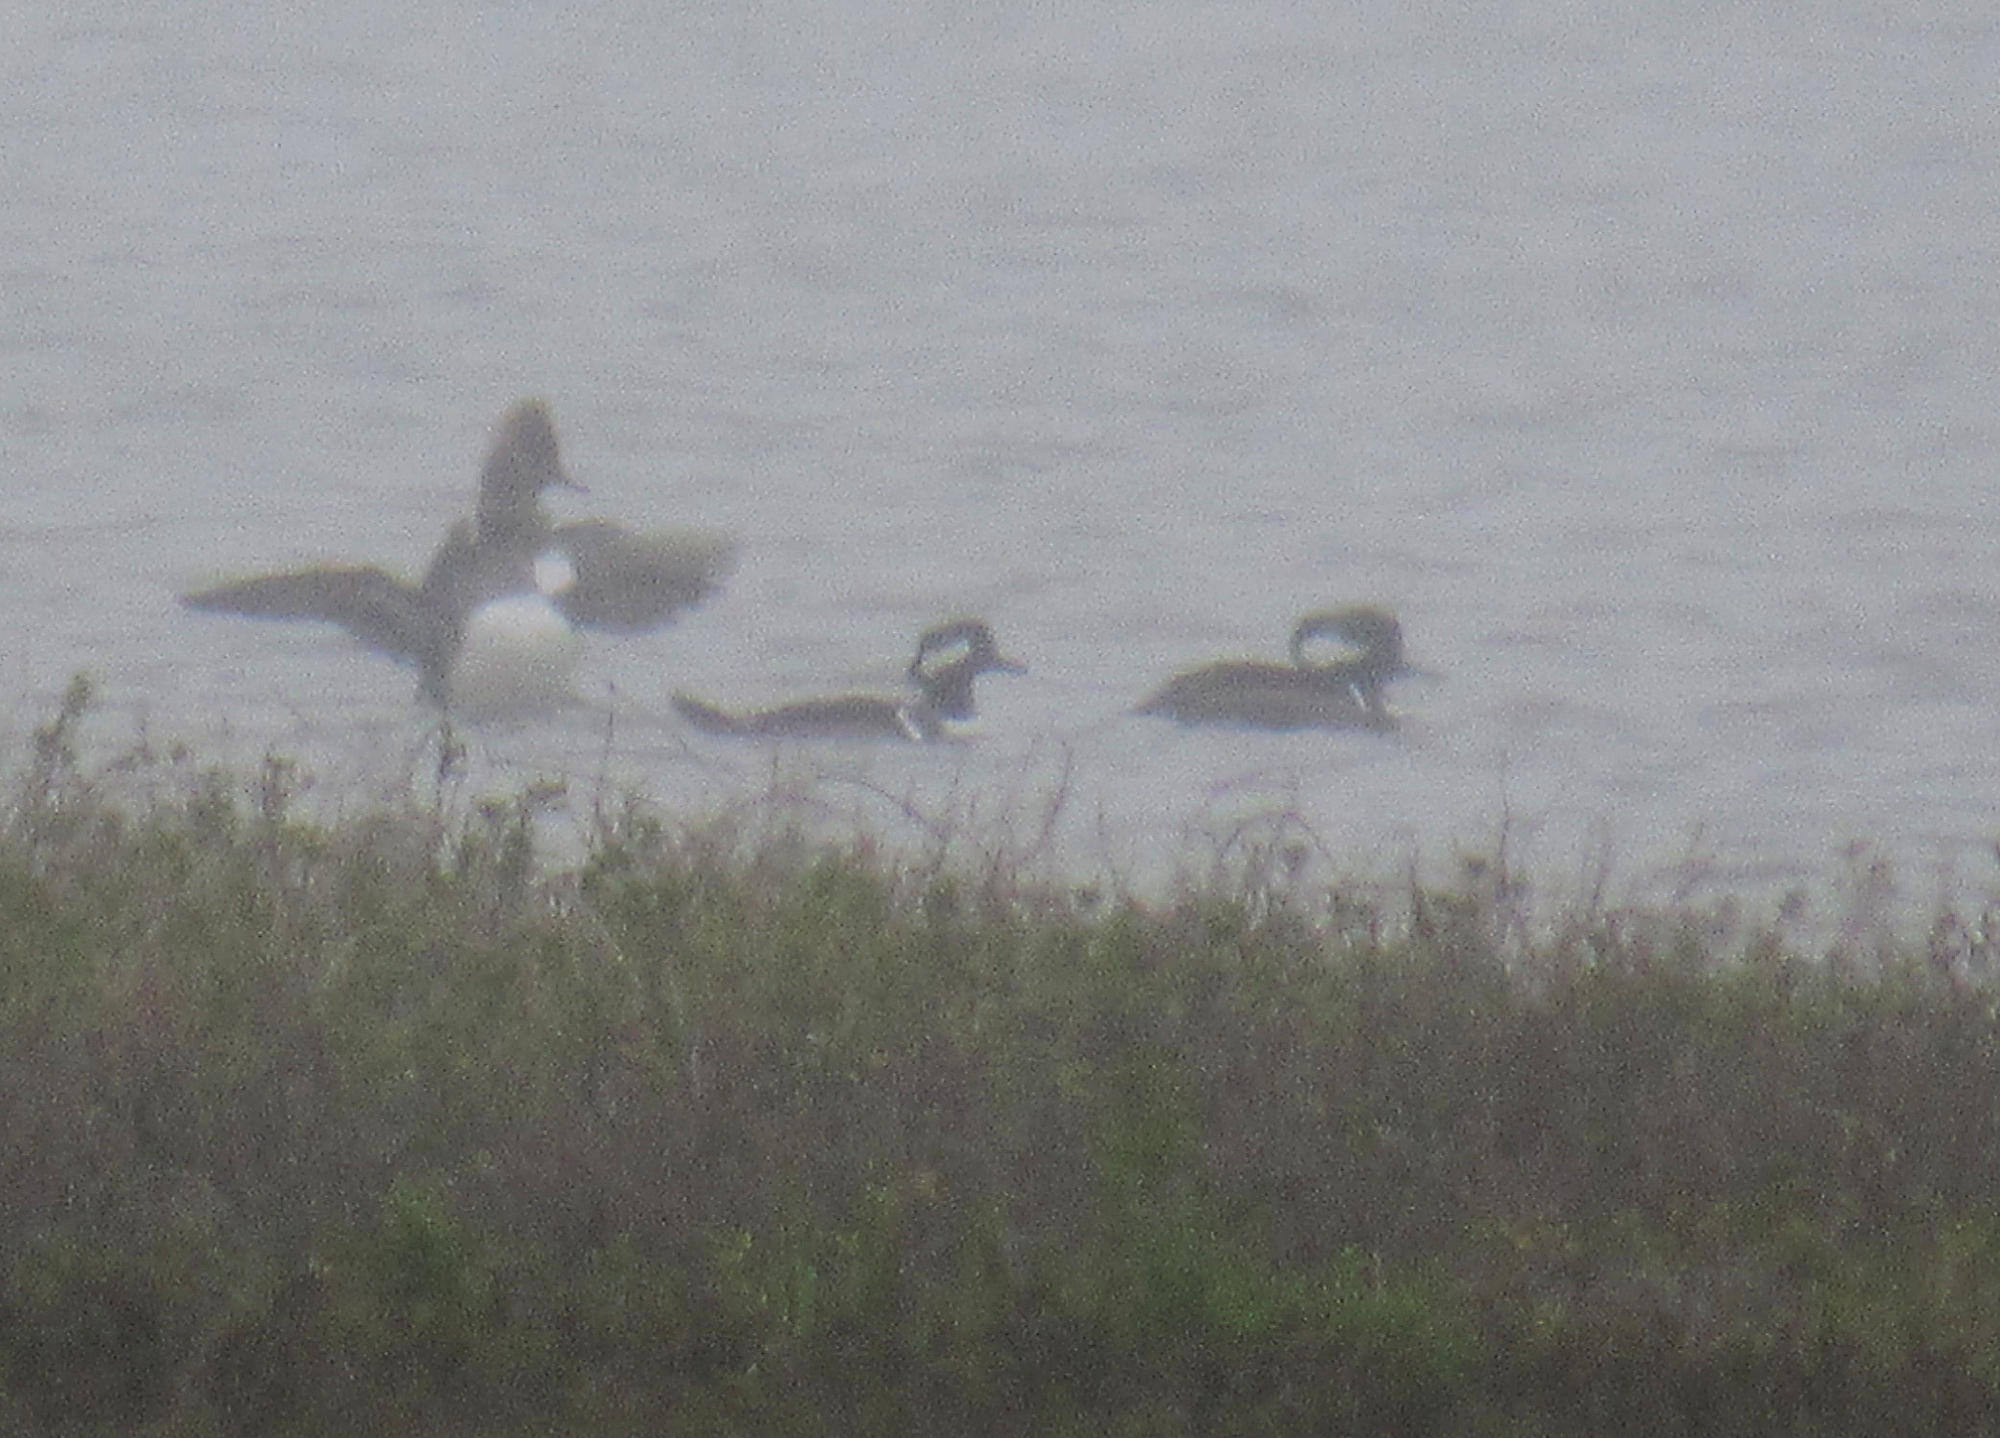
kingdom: Animalia
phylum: Chordata
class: Aves
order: Anseriformes
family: Anatidae
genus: Lophodytes
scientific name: Lophodytes cucullatus
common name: Hooded merganser
